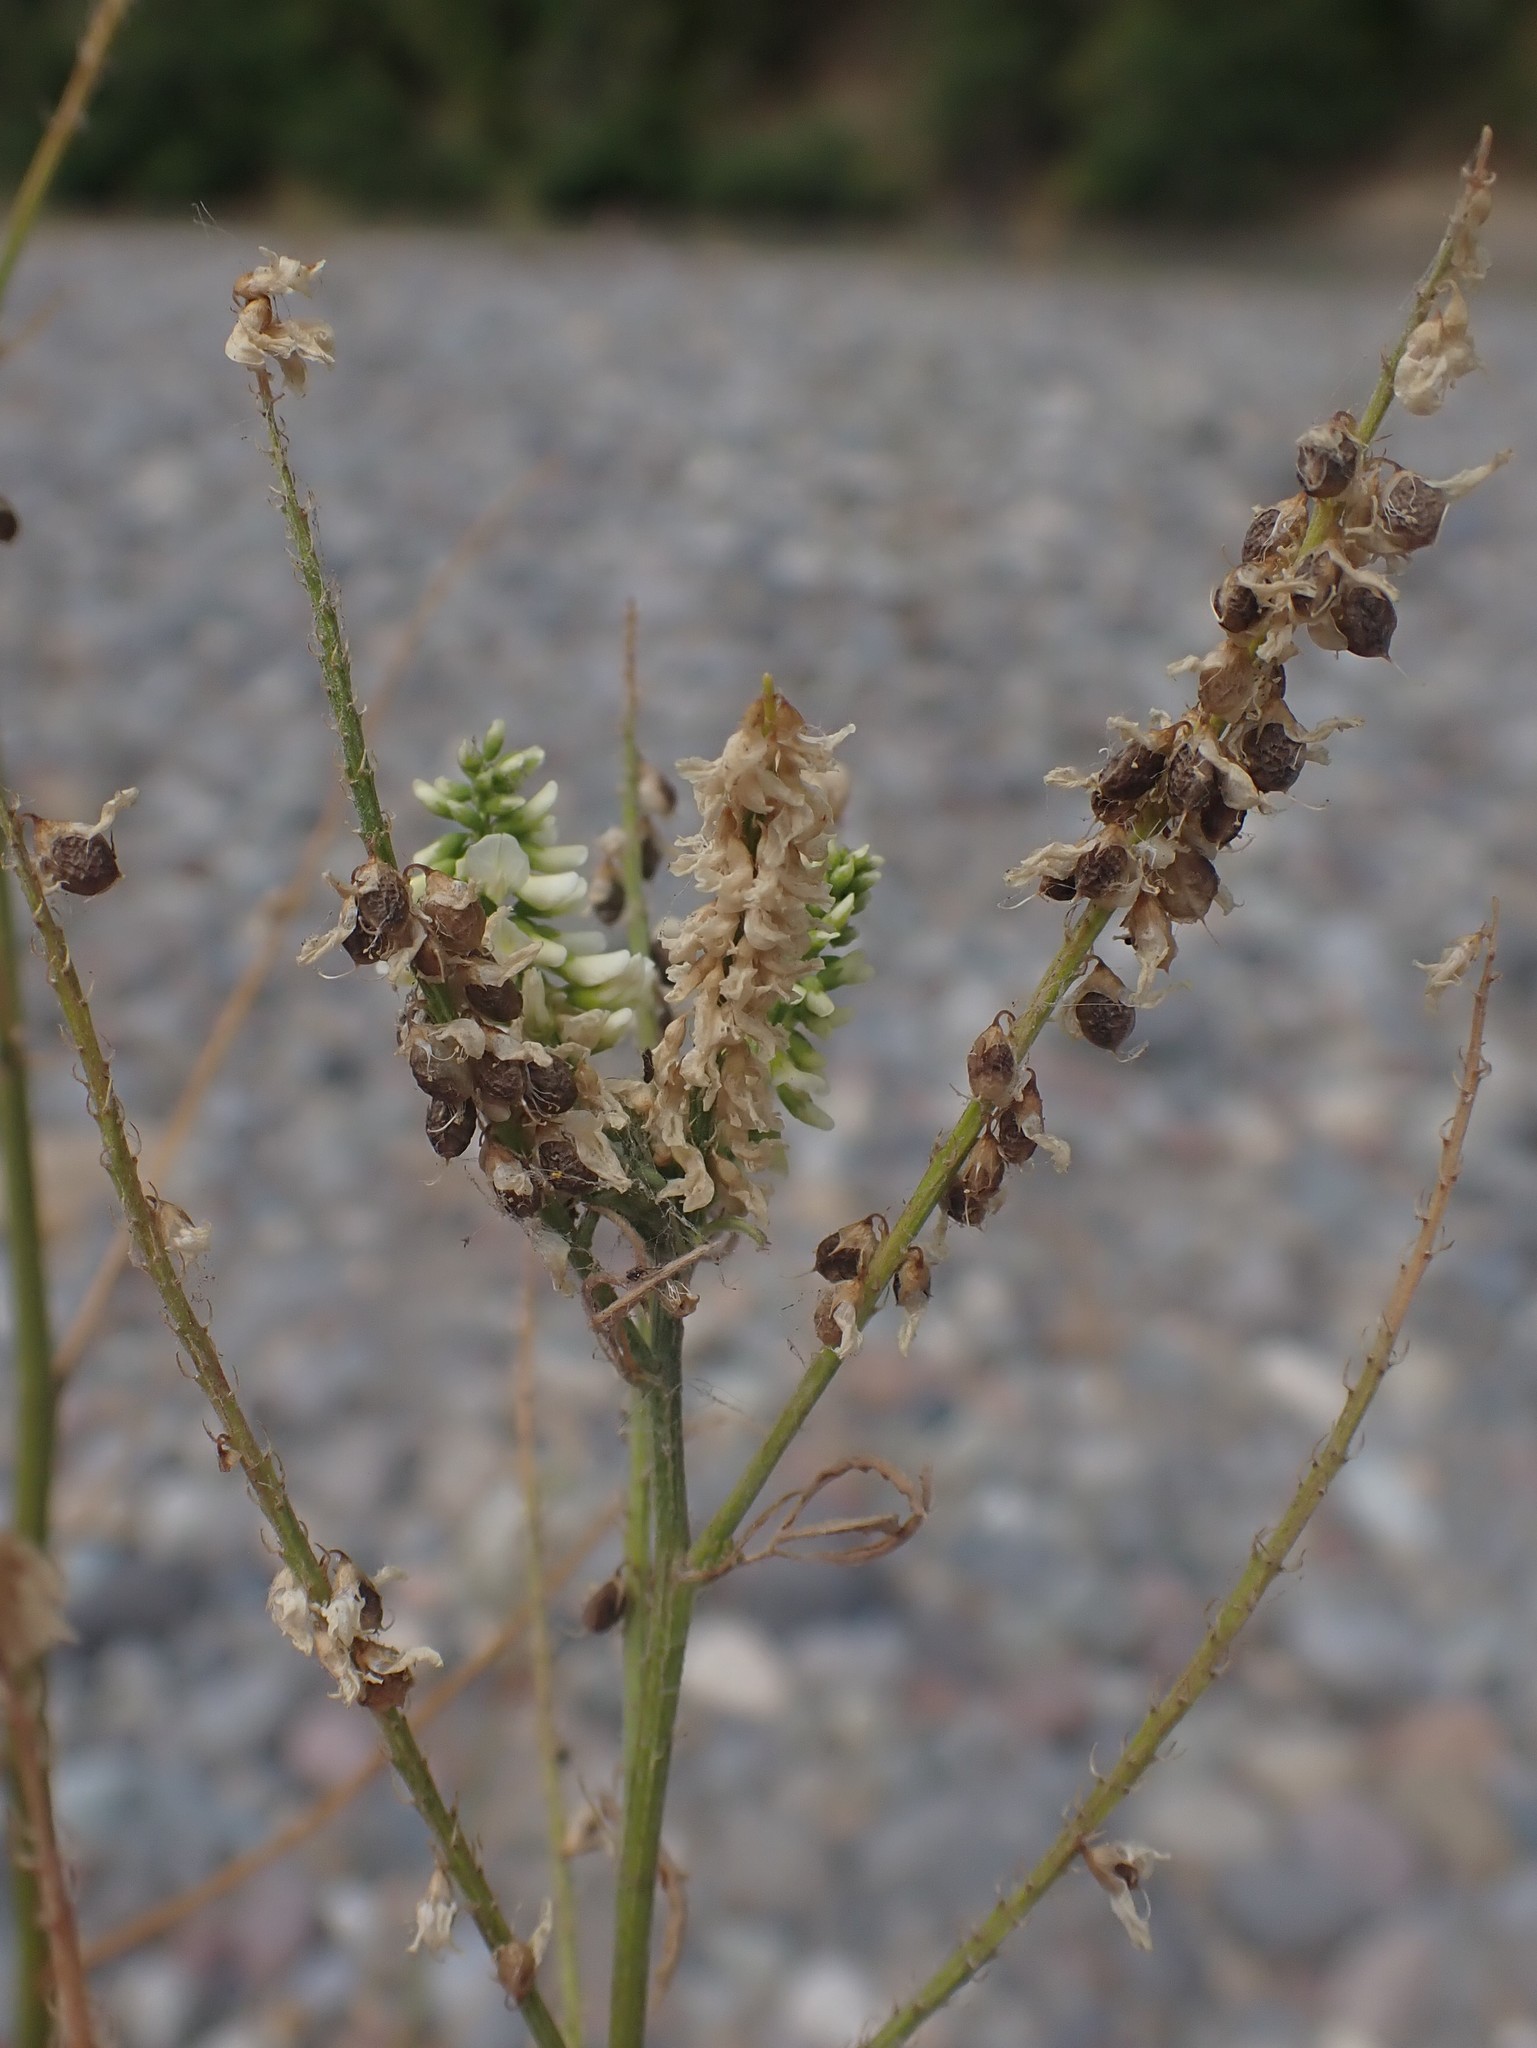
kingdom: Plantae
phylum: Tracheophyta
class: Magnoliopsida
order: Fabales
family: Fabaceae
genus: Melilotus
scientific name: Melilotus albus
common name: White melilot
